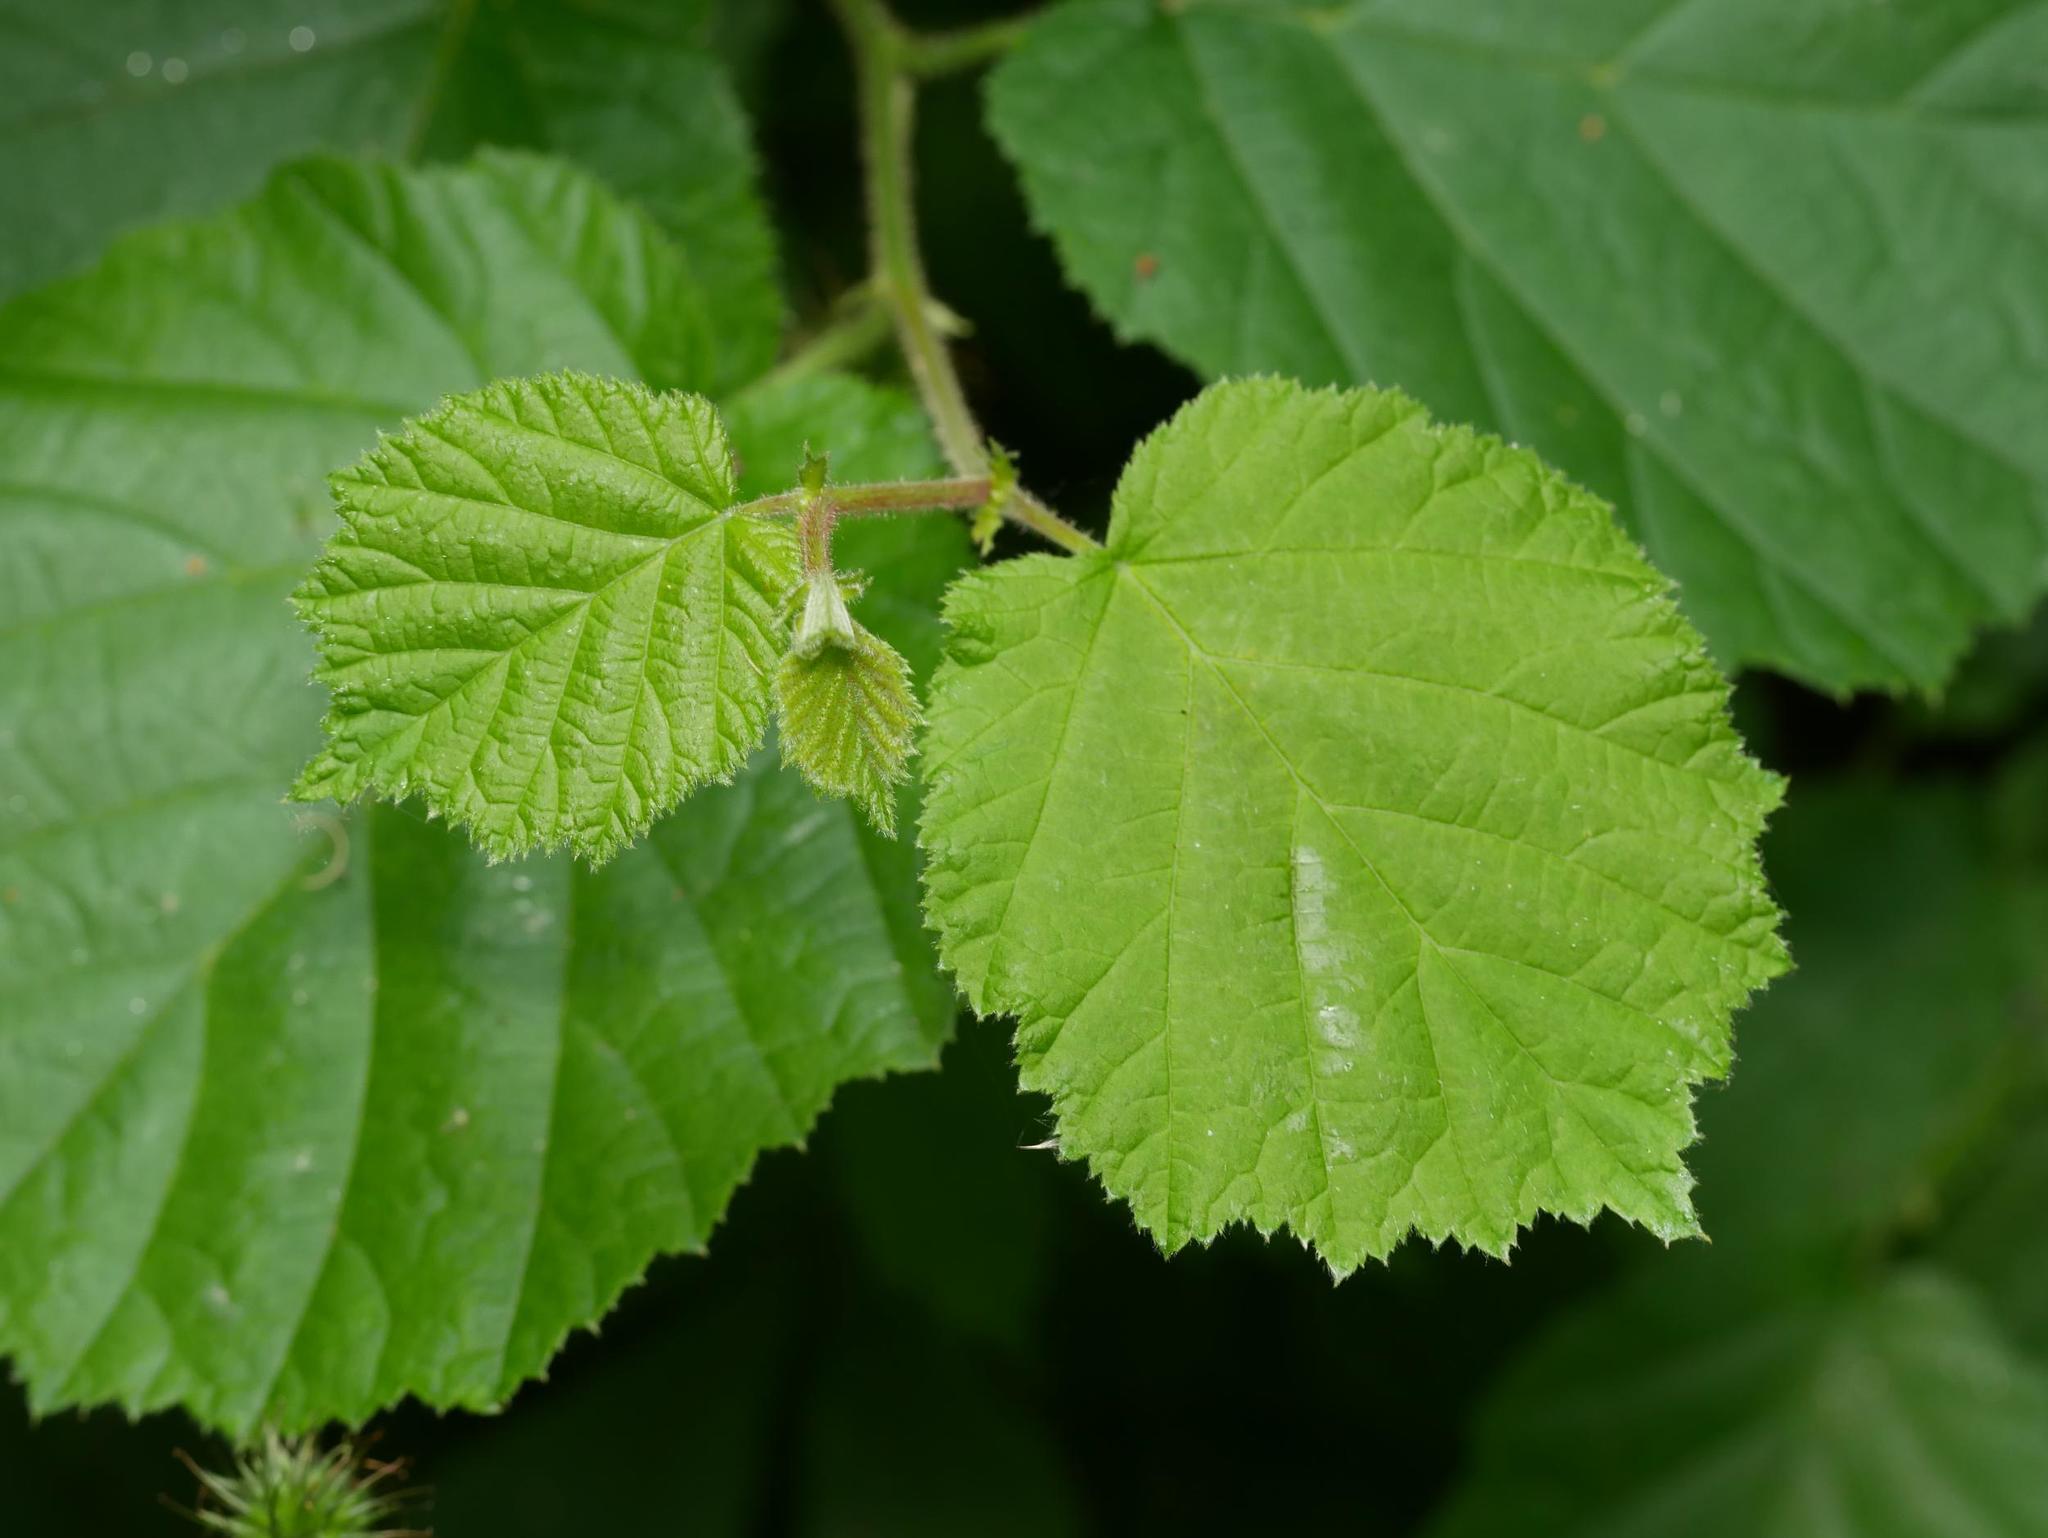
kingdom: Plantae
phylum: Tracheophyta
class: Magnoliopsida
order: Fagales
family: Betulaceae
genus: Corylus
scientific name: Corylus avellana
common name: European hazel
